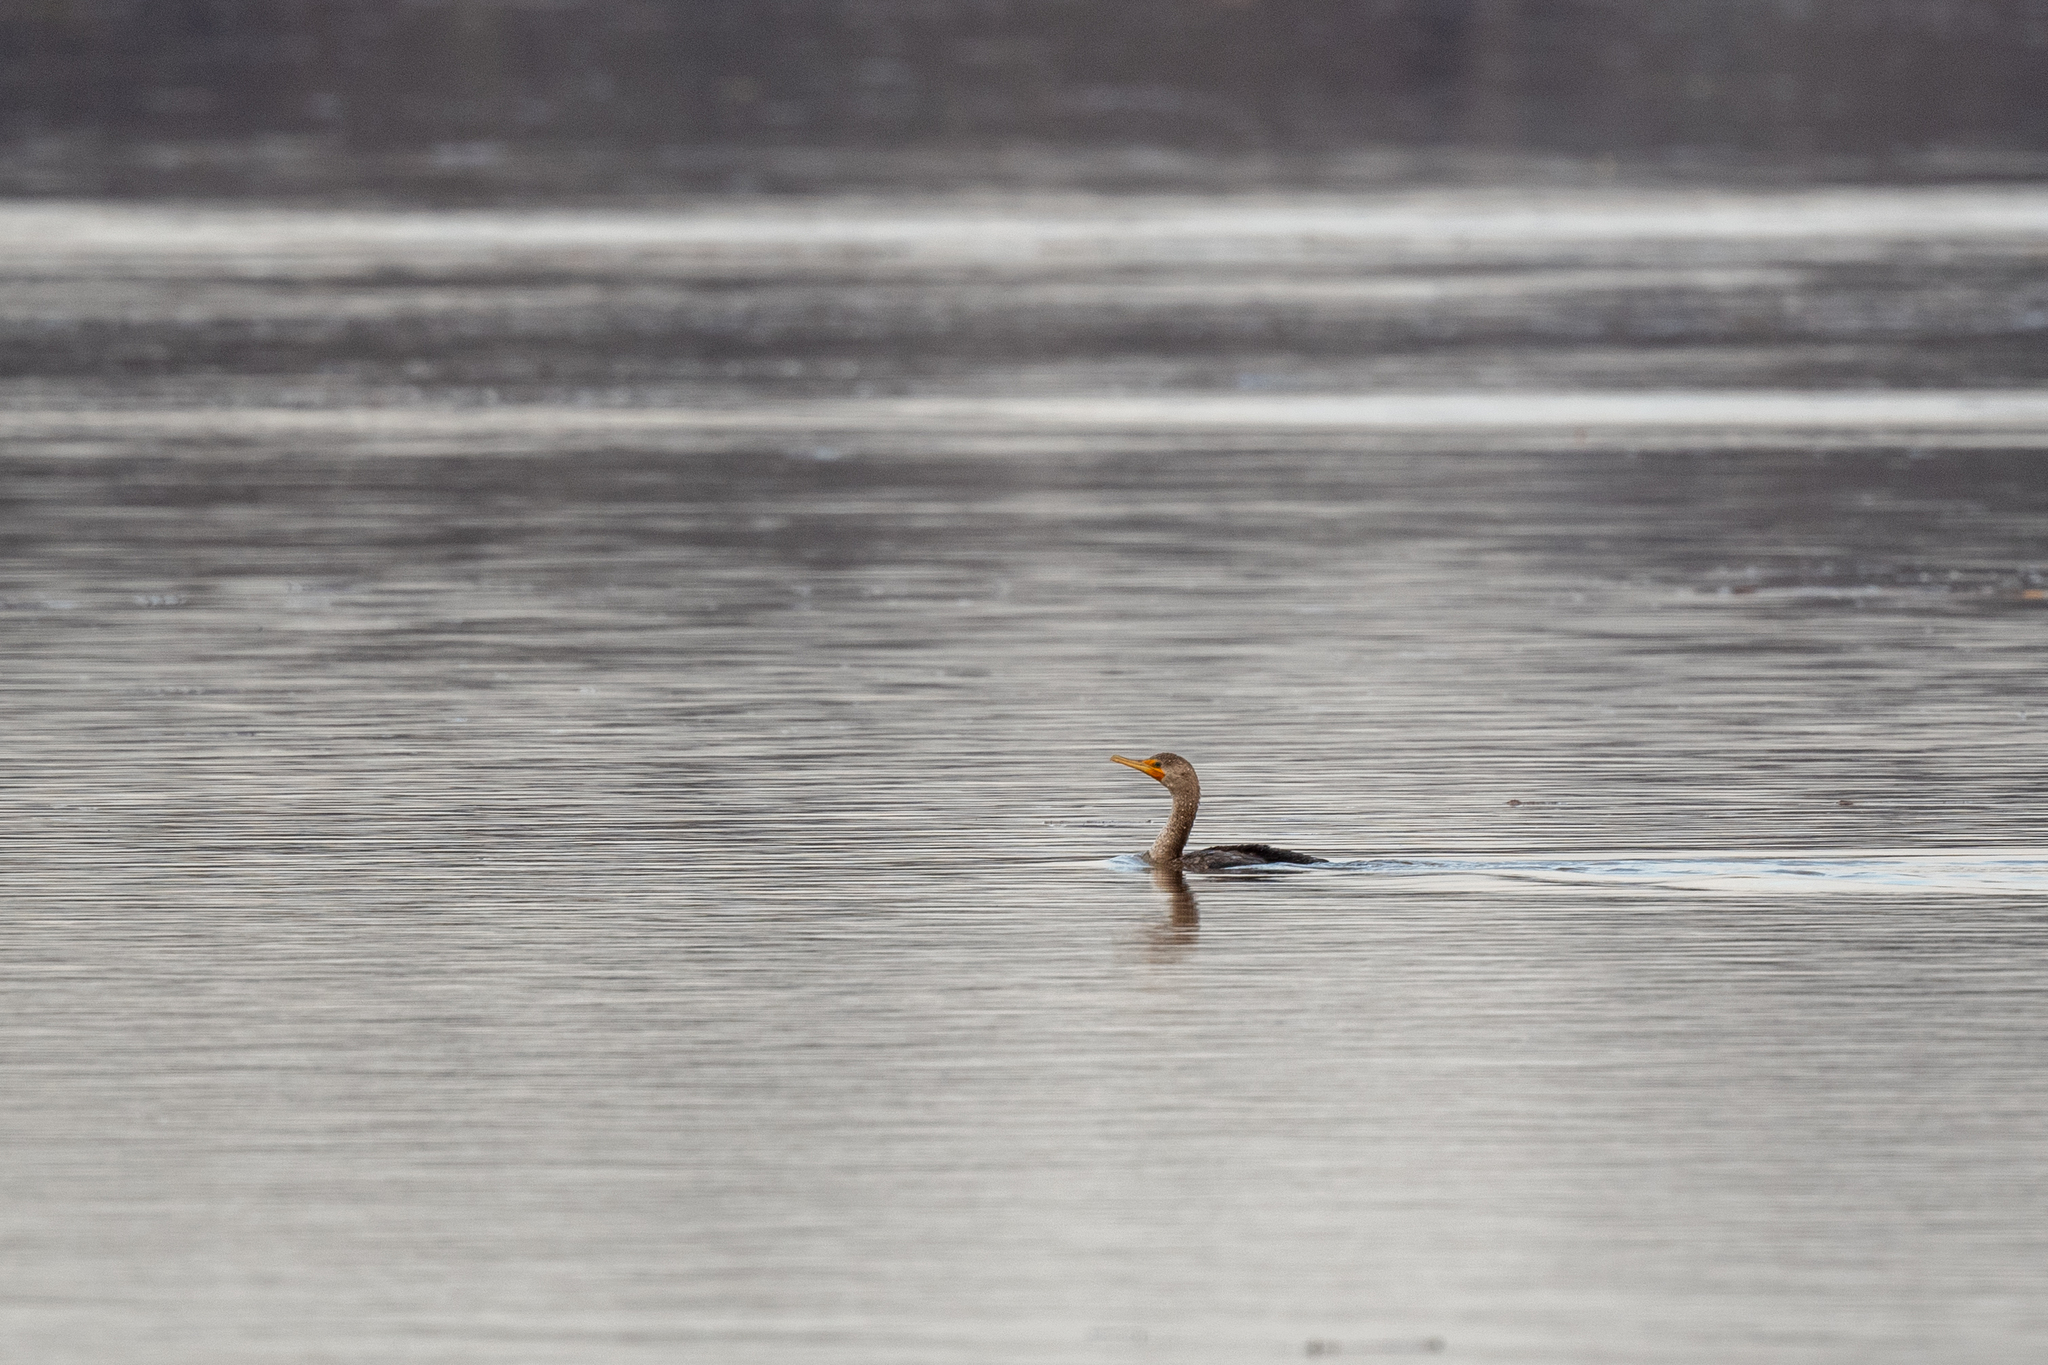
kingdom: Animalia
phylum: Chordata
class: Aves
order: Suliformes
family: Phalacrocoracidae
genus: Phalacrocorax
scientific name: Phalacrocorax auritus
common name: Double-crested cormorant
